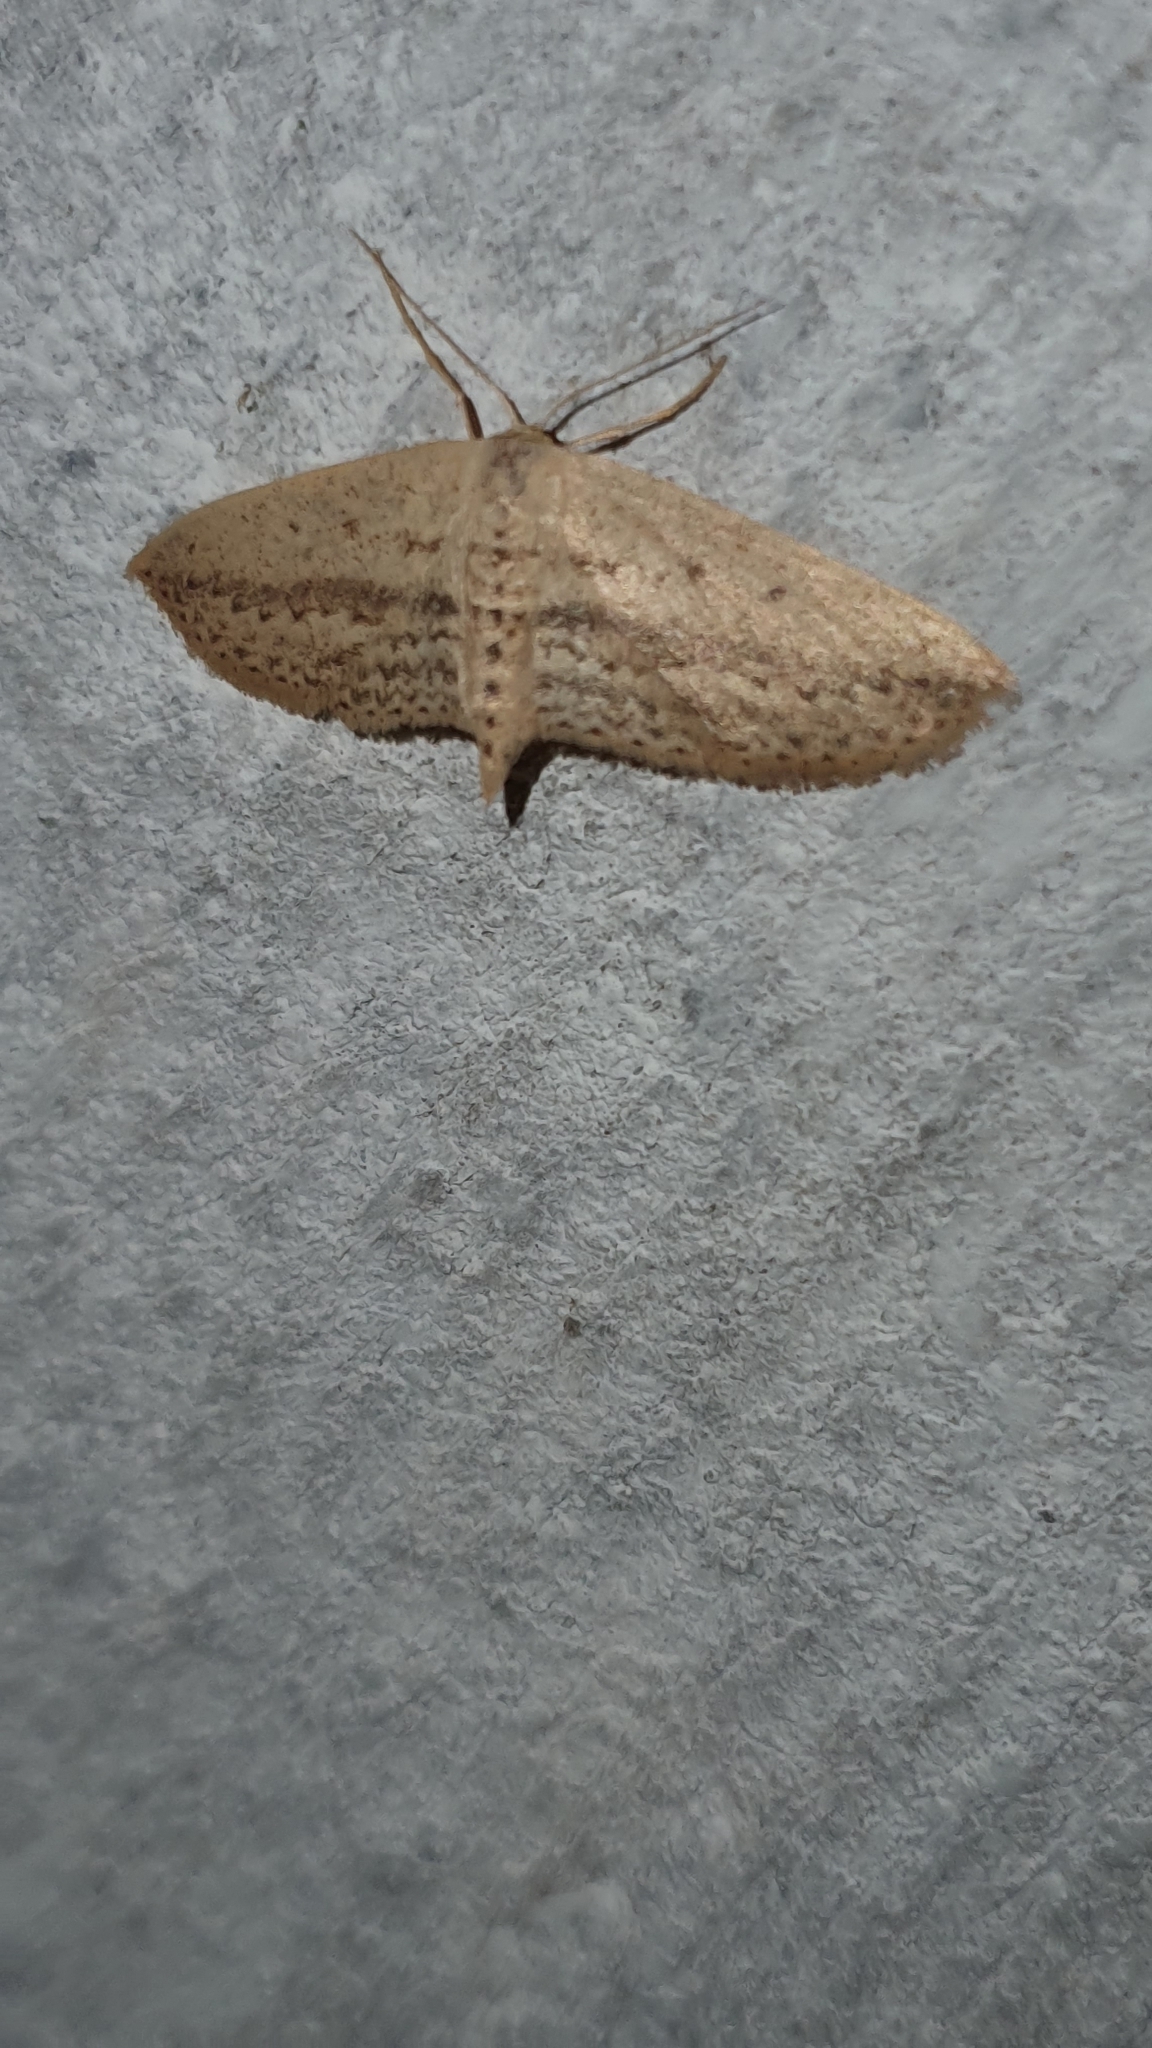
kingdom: Animalia
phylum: Arthropoda
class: Insecta
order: Lepidoptera
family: Geometridae
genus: Scopula
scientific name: Scopula emissaria
